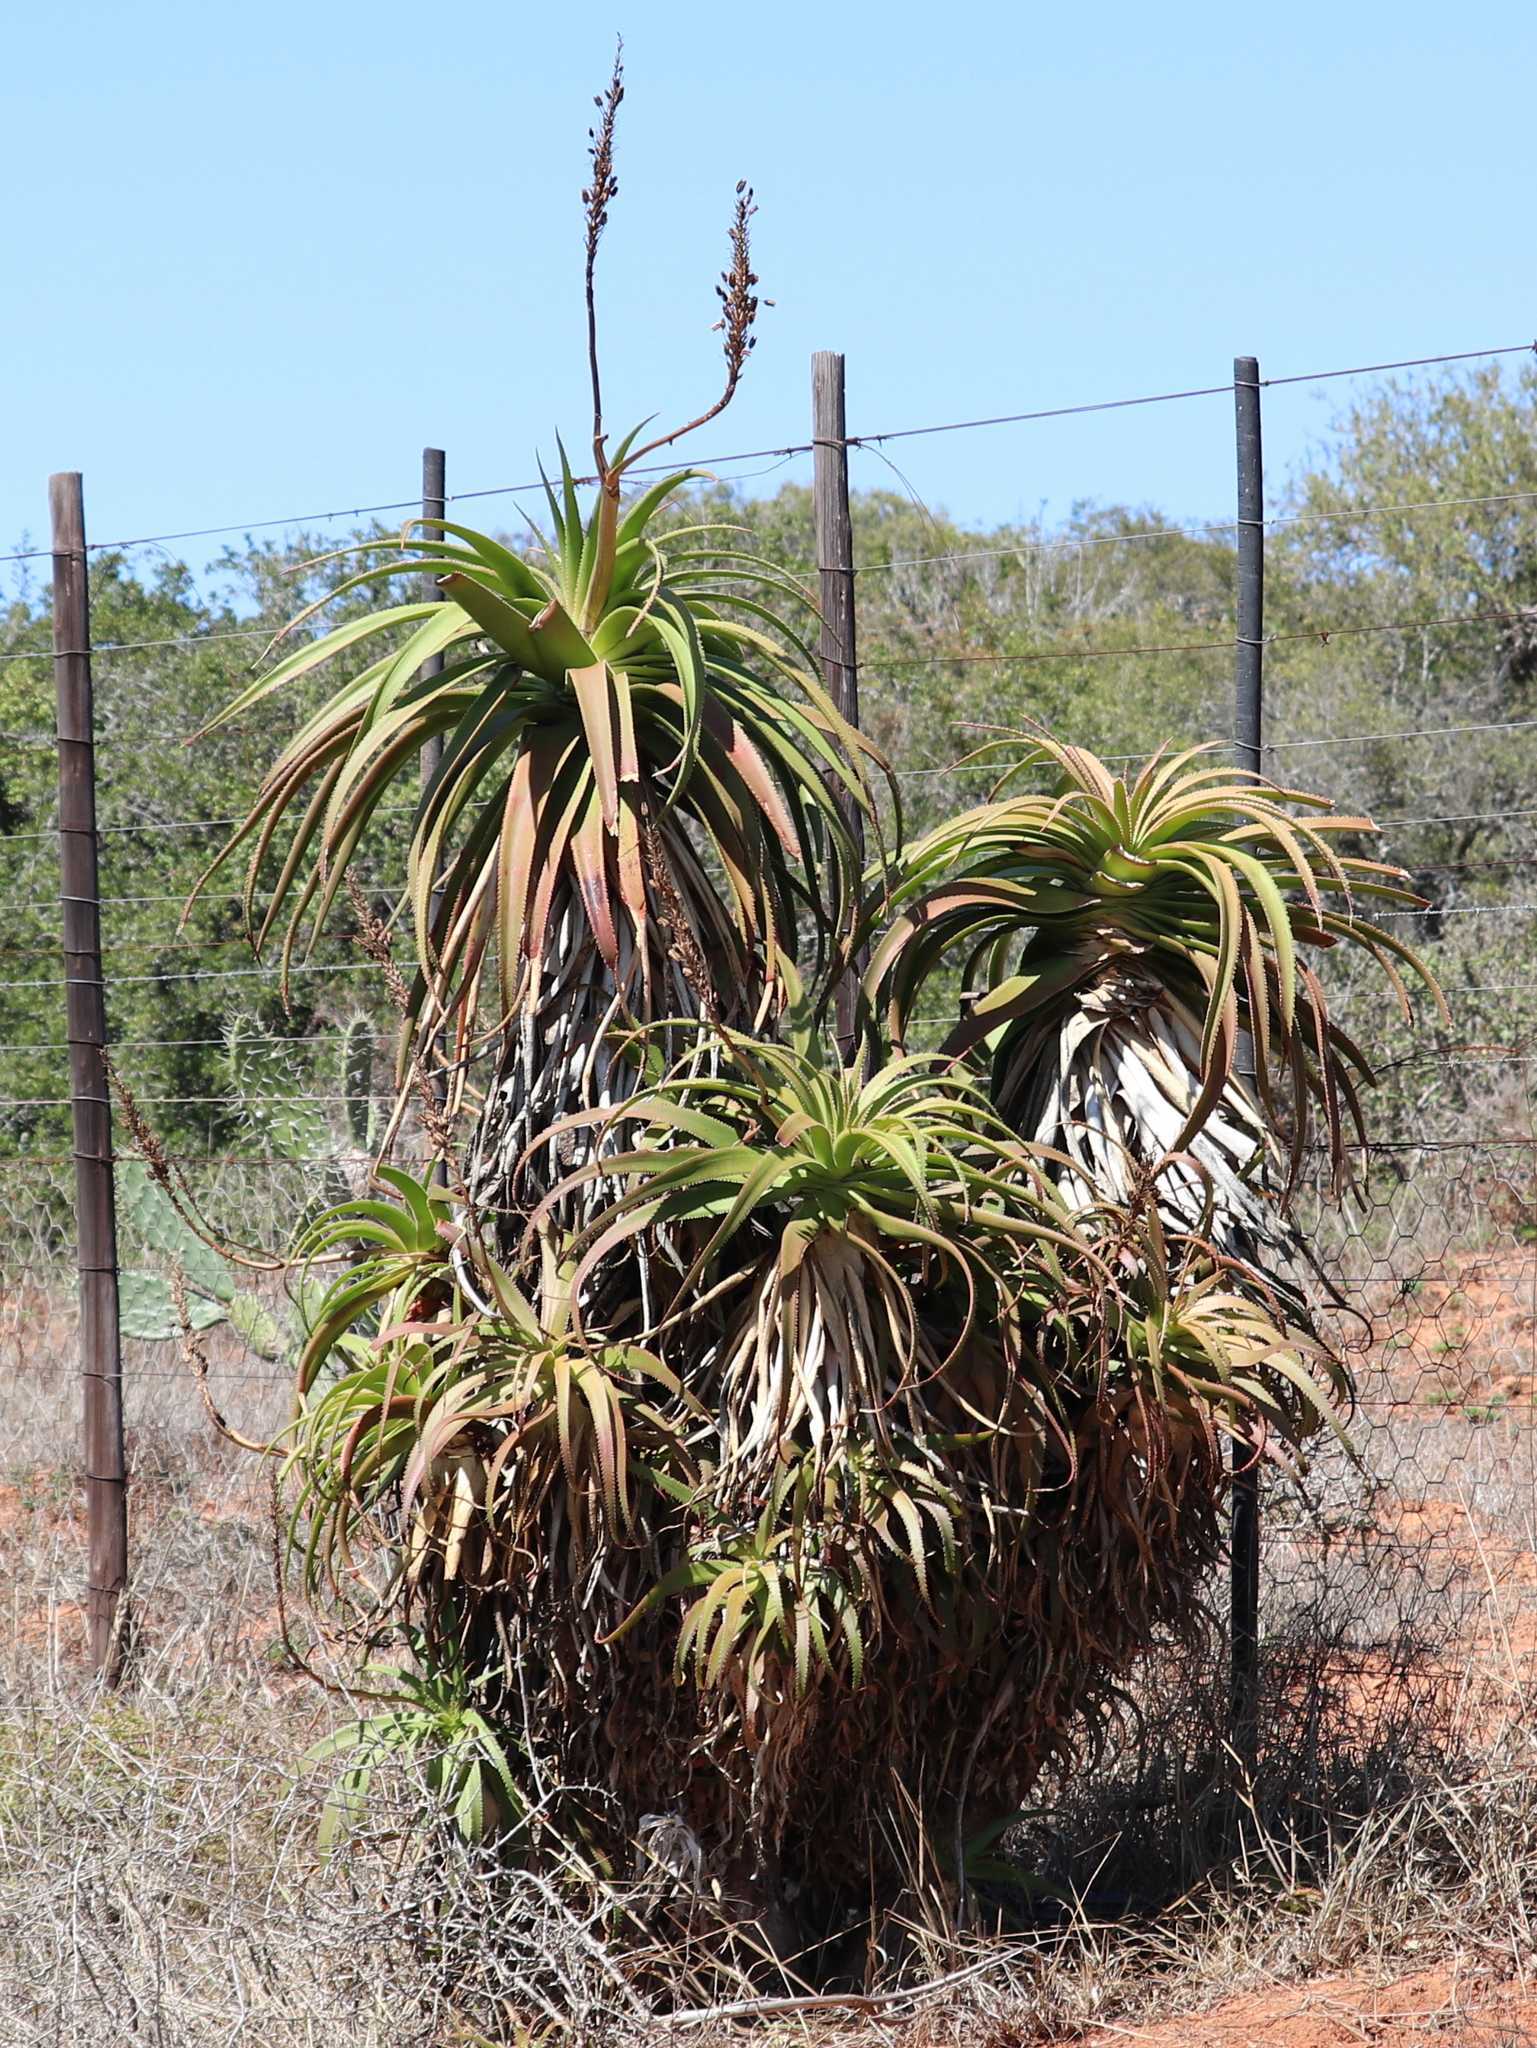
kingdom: Plantae
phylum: Tracheophyta
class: Liliopsida
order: Asparagales
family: Asphodelaceae
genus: Aloe
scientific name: Aloe pluridens
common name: French aloe
